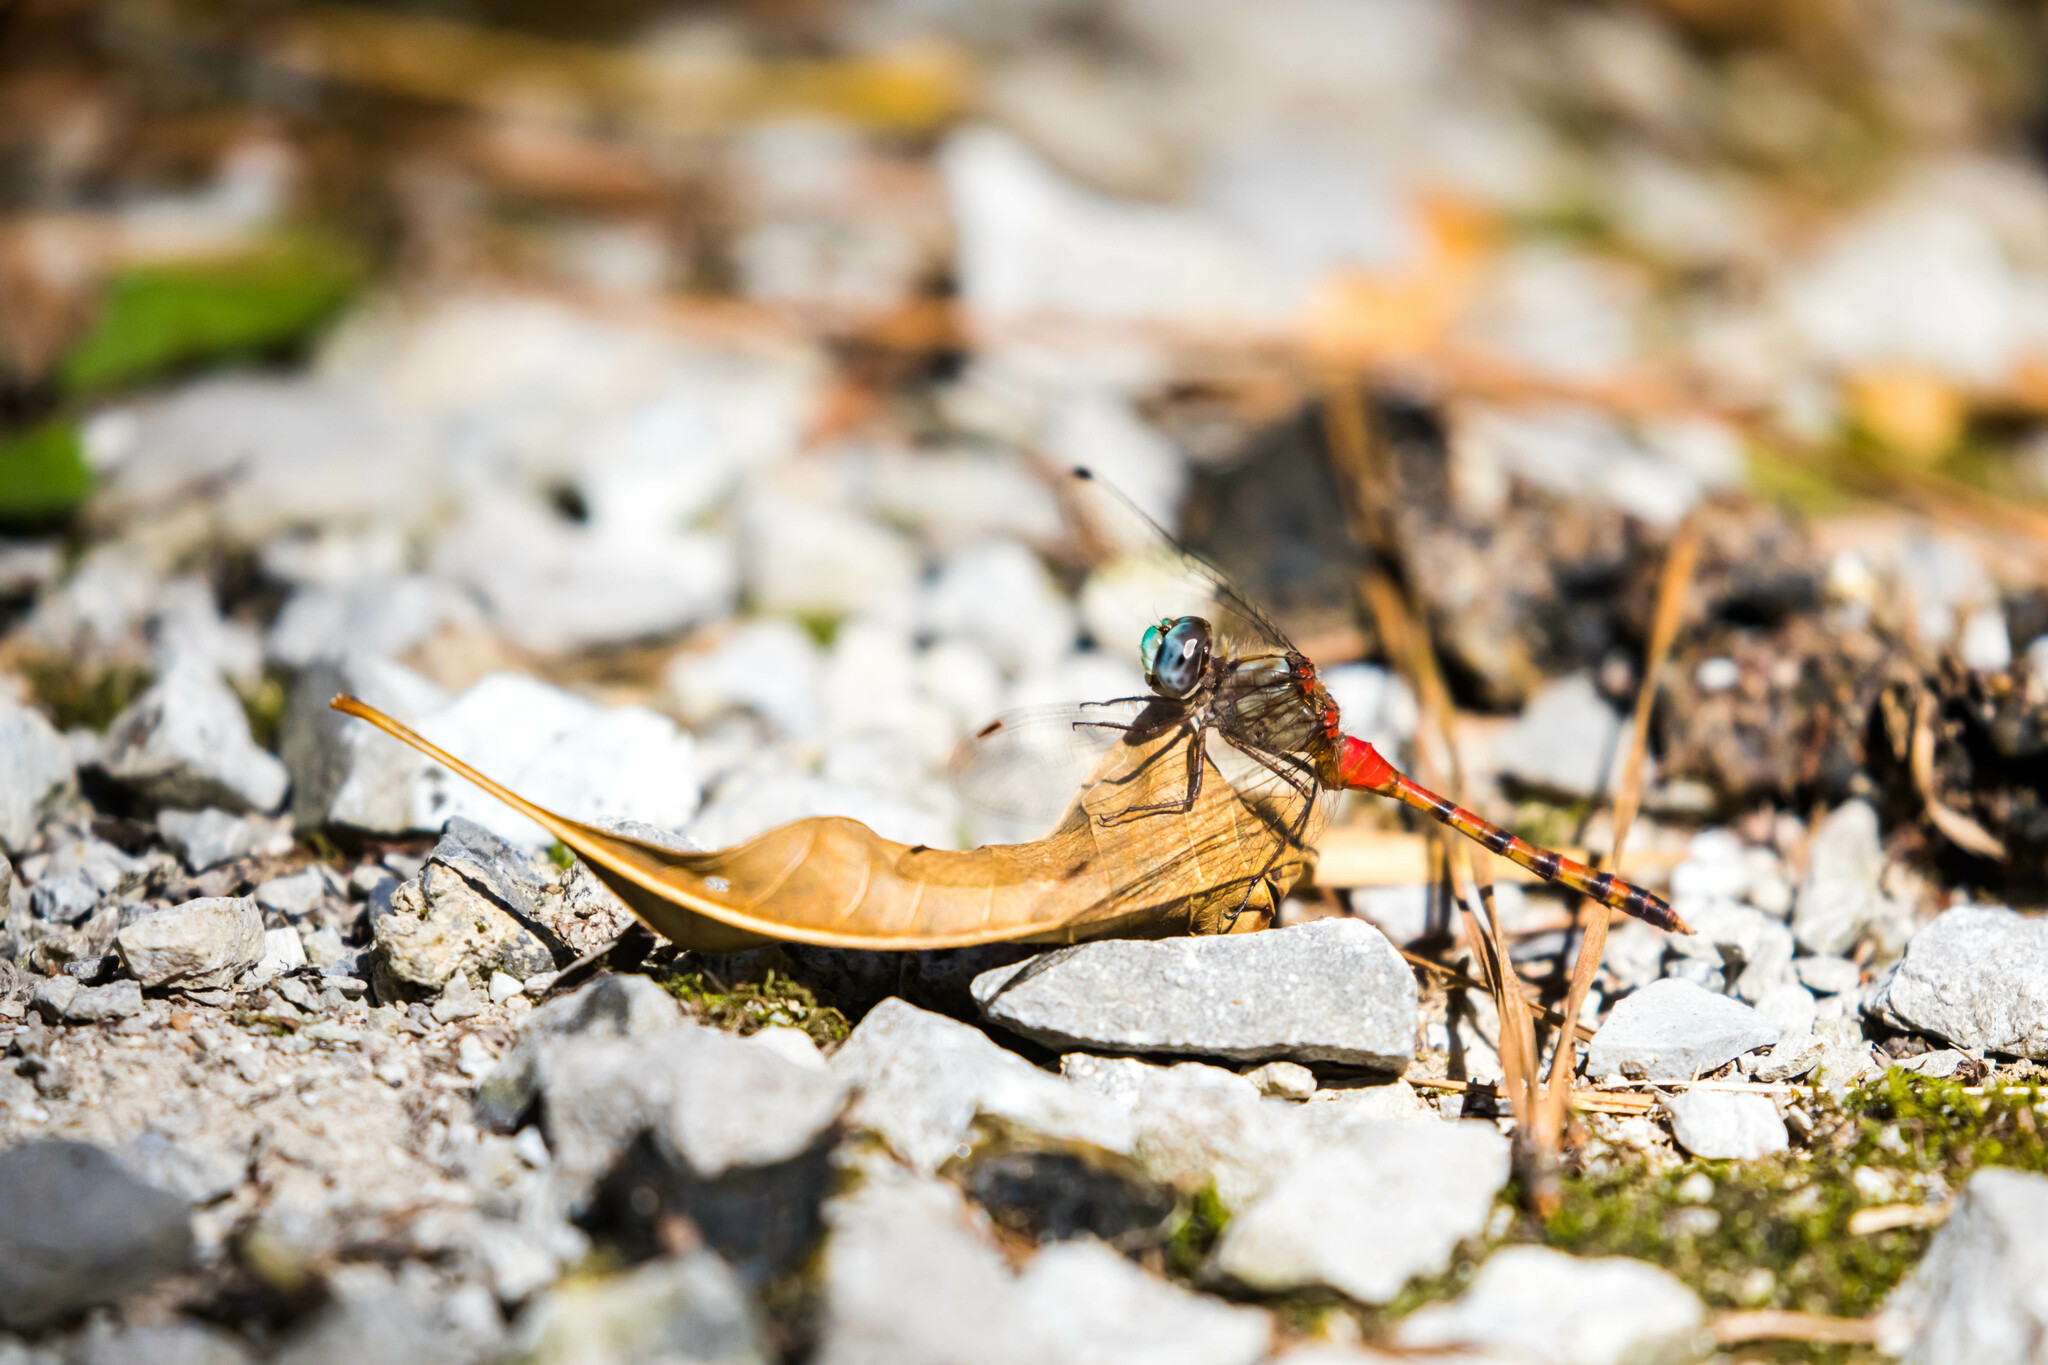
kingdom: Animalia
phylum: Arthropoda
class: Insecta
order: Odonata
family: Libellulidae
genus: Sympetrum
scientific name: Sympetrum ambiguum
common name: Blue-faced meadowhawk
